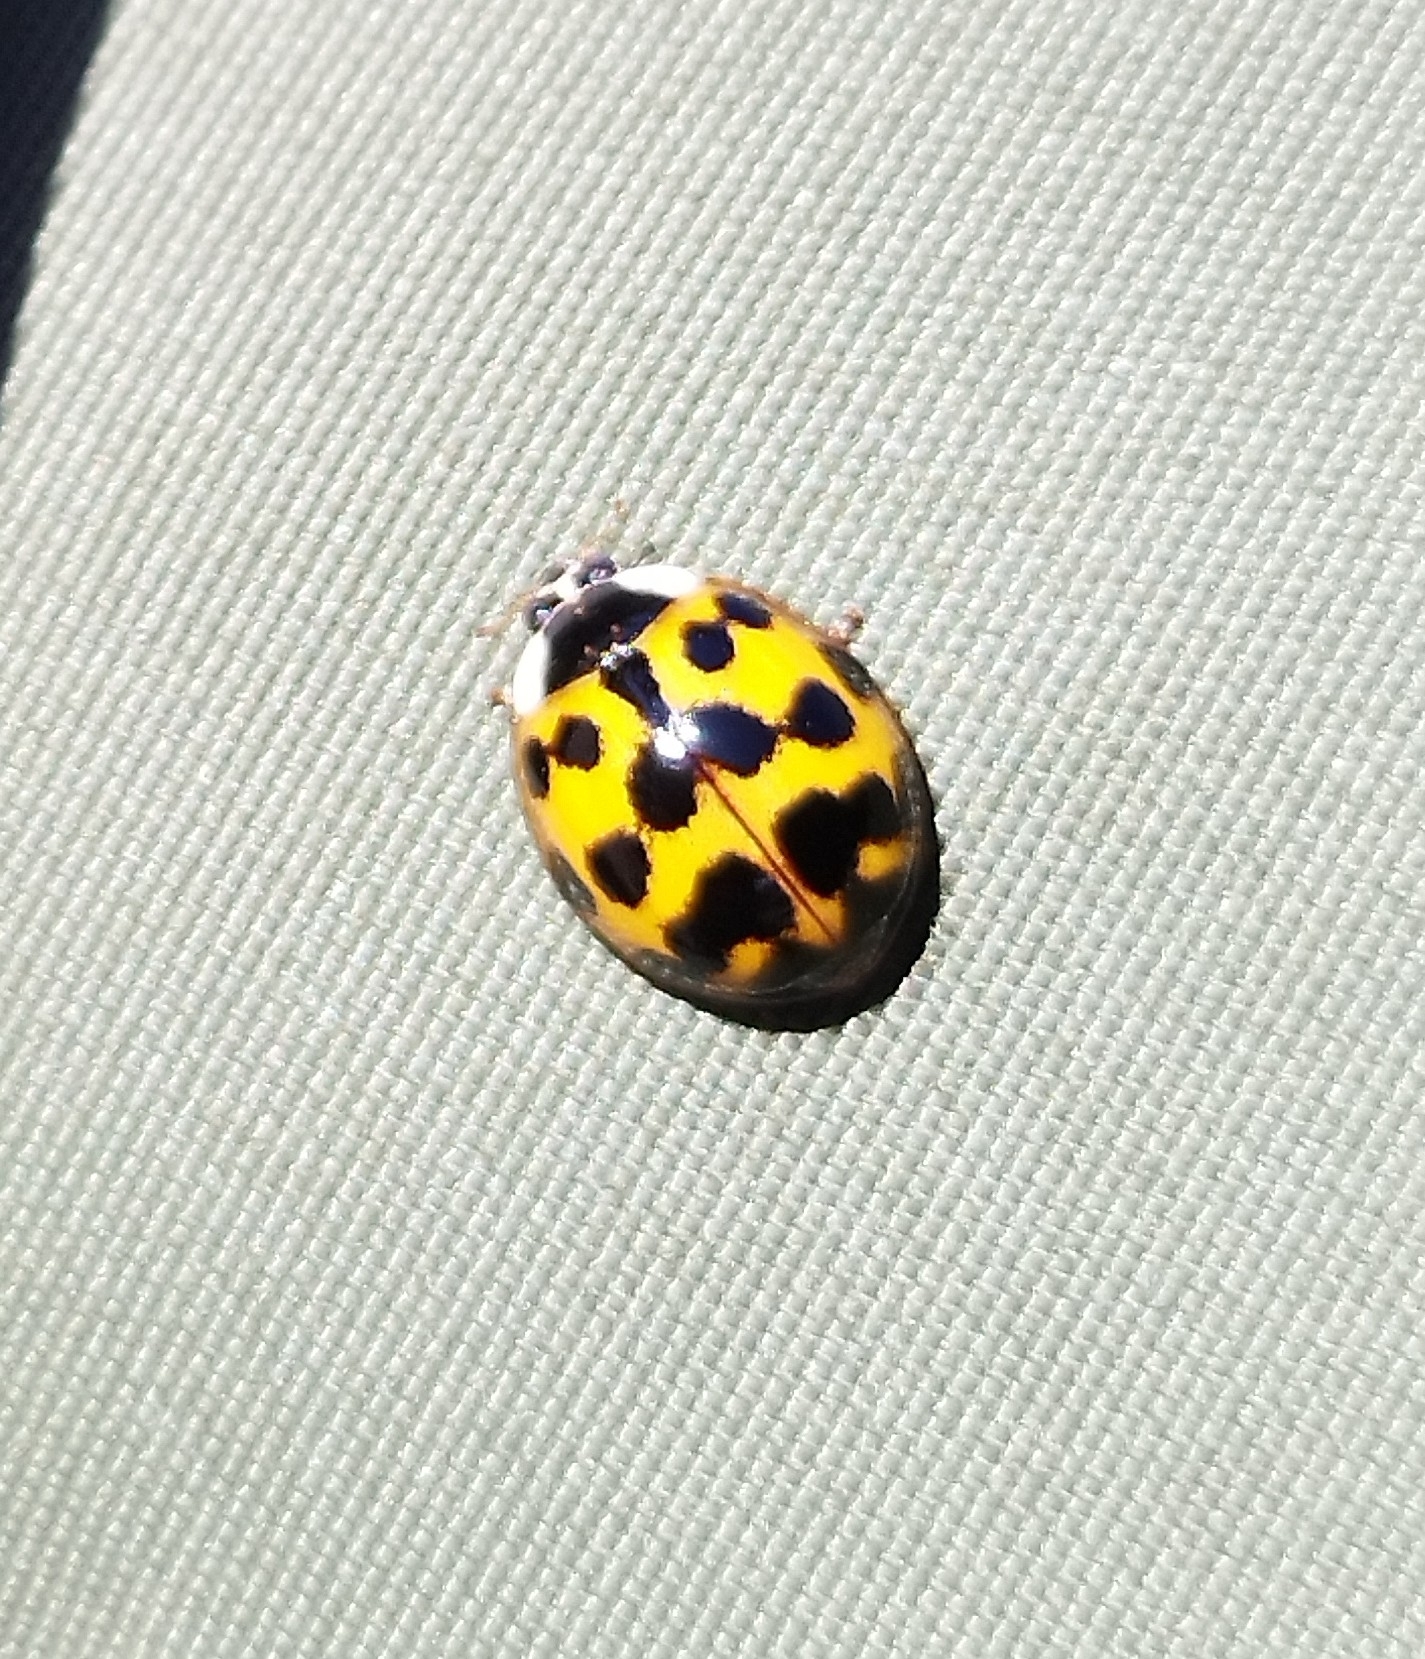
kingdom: Animalia
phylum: Arthropoda
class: Insecta
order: Coleoptera
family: Coccinellidae
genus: Harmonia
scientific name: Harmonia axyridis
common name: Harlequin ladybird
